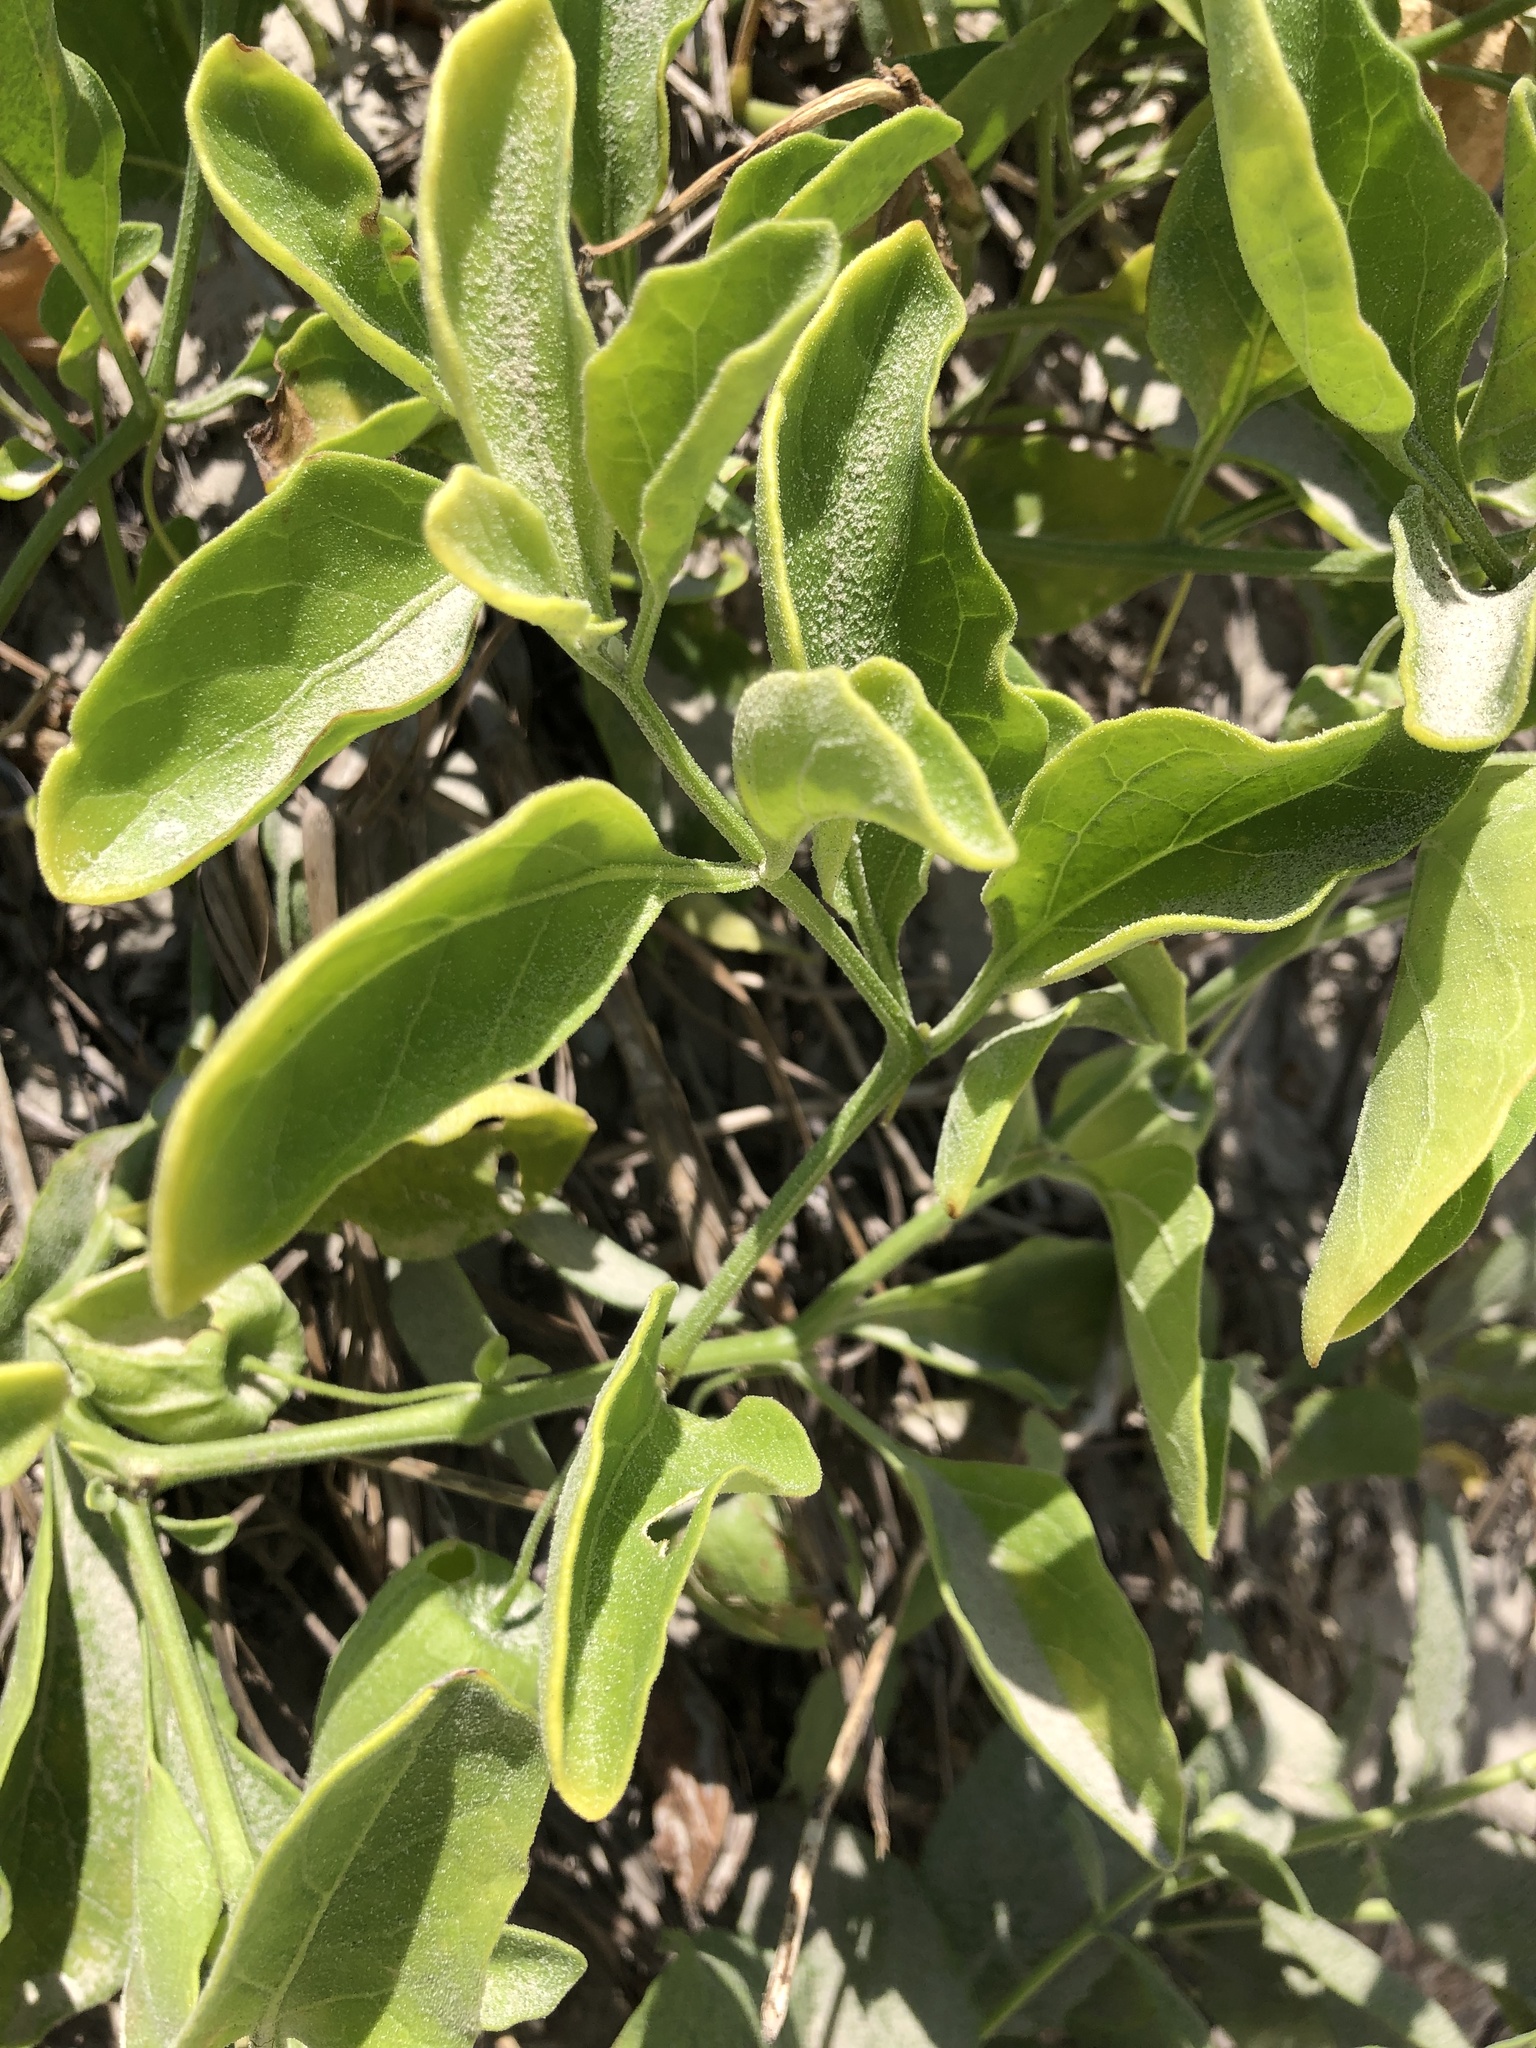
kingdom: Plantae
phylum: Tracheophyta
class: Magnoliopsida
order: Solanales
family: Solanaceae
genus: Physalis
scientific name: Physalis cinerascens
